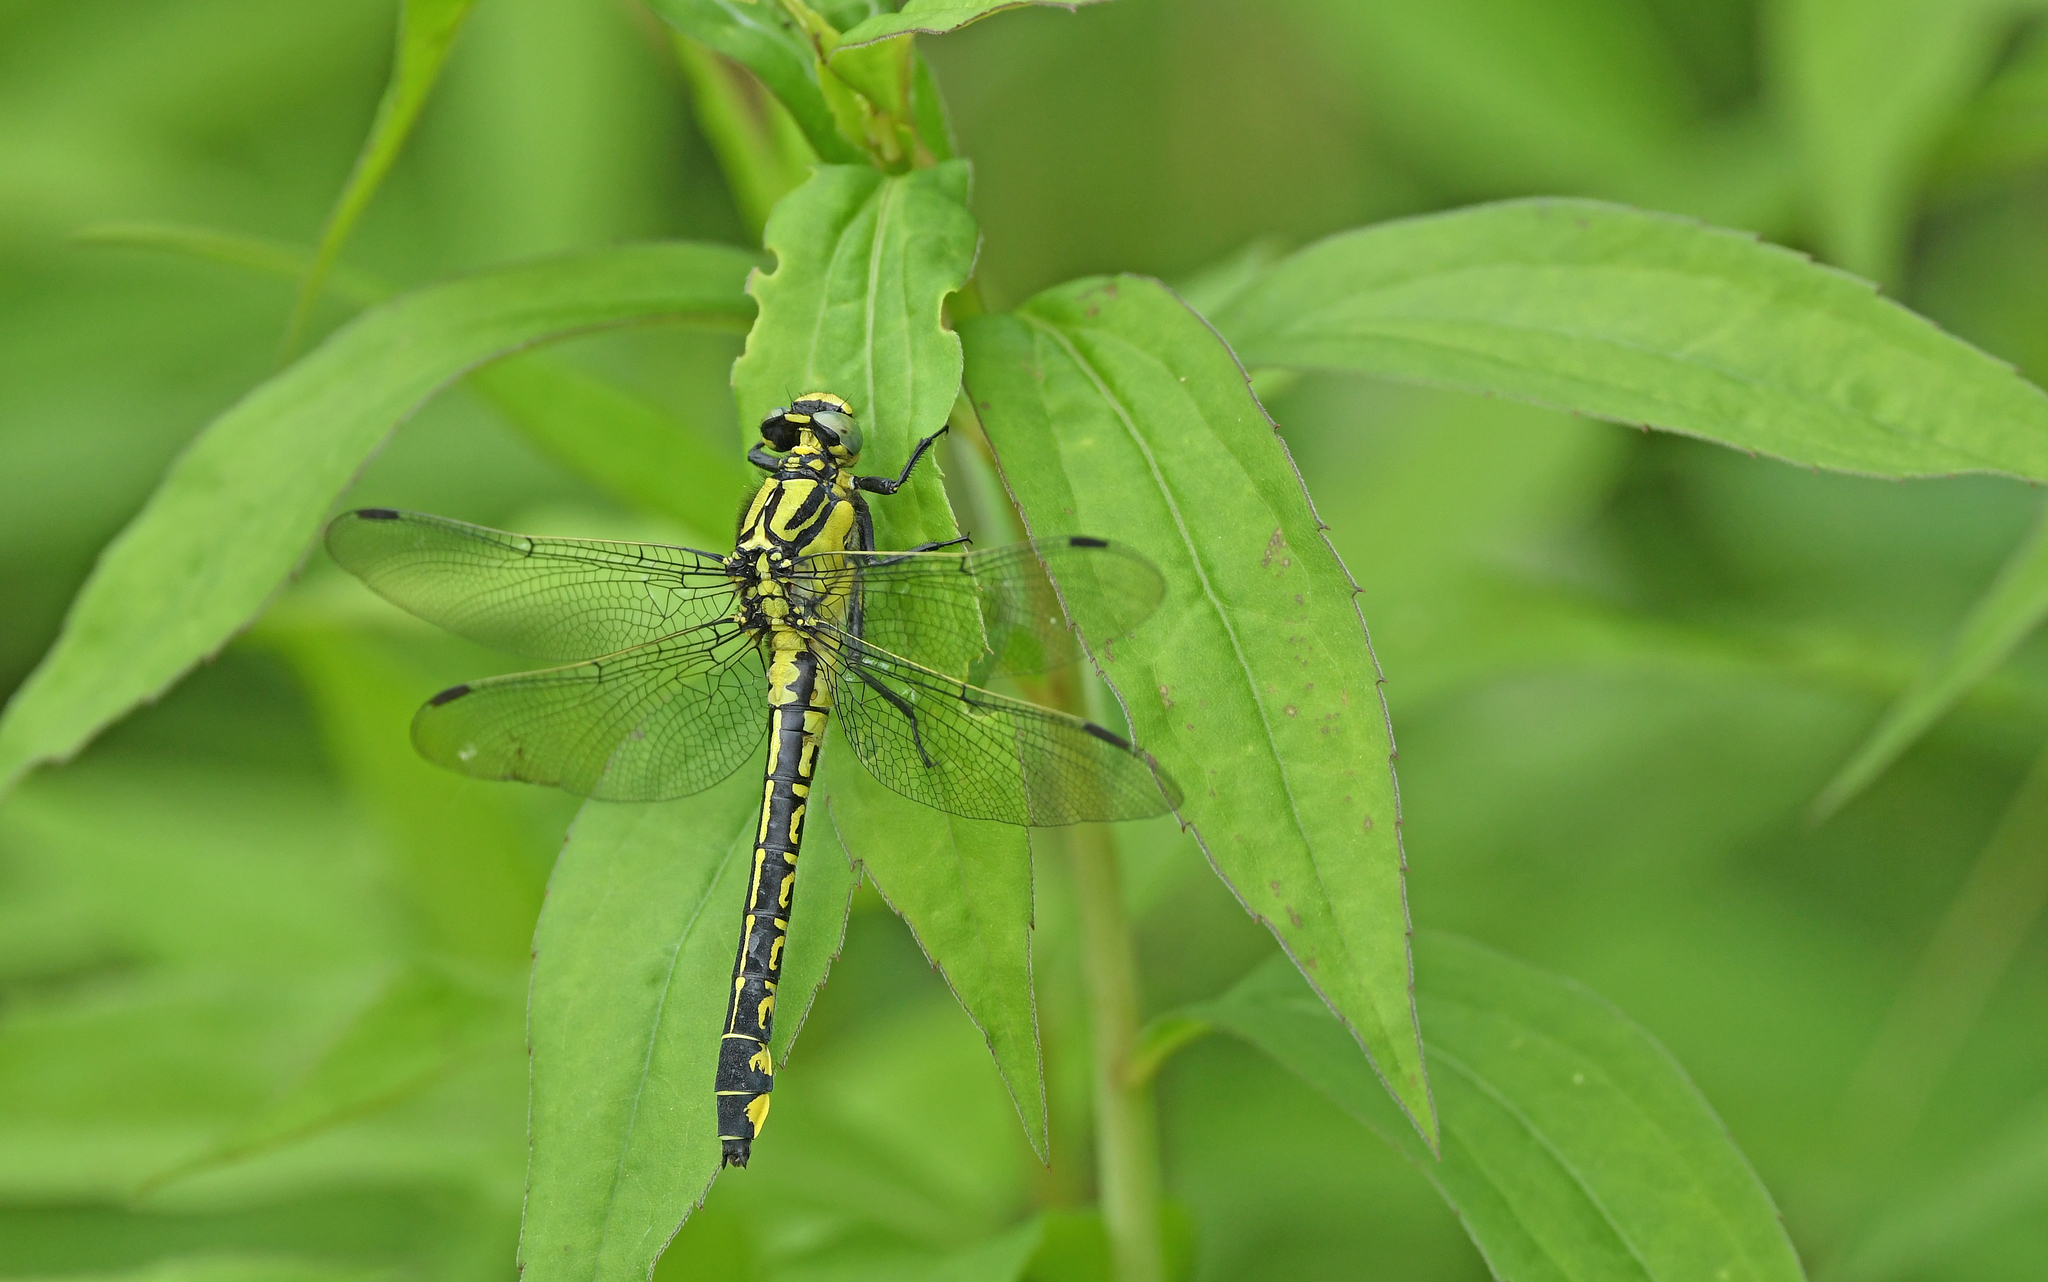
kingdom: Animalia
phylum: Arthropoda
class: Insecta
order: Odonata
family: Gomphidae
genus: Gomphus
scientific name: Gomphus vulgatissimus
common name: Club-tailed dragonfly
